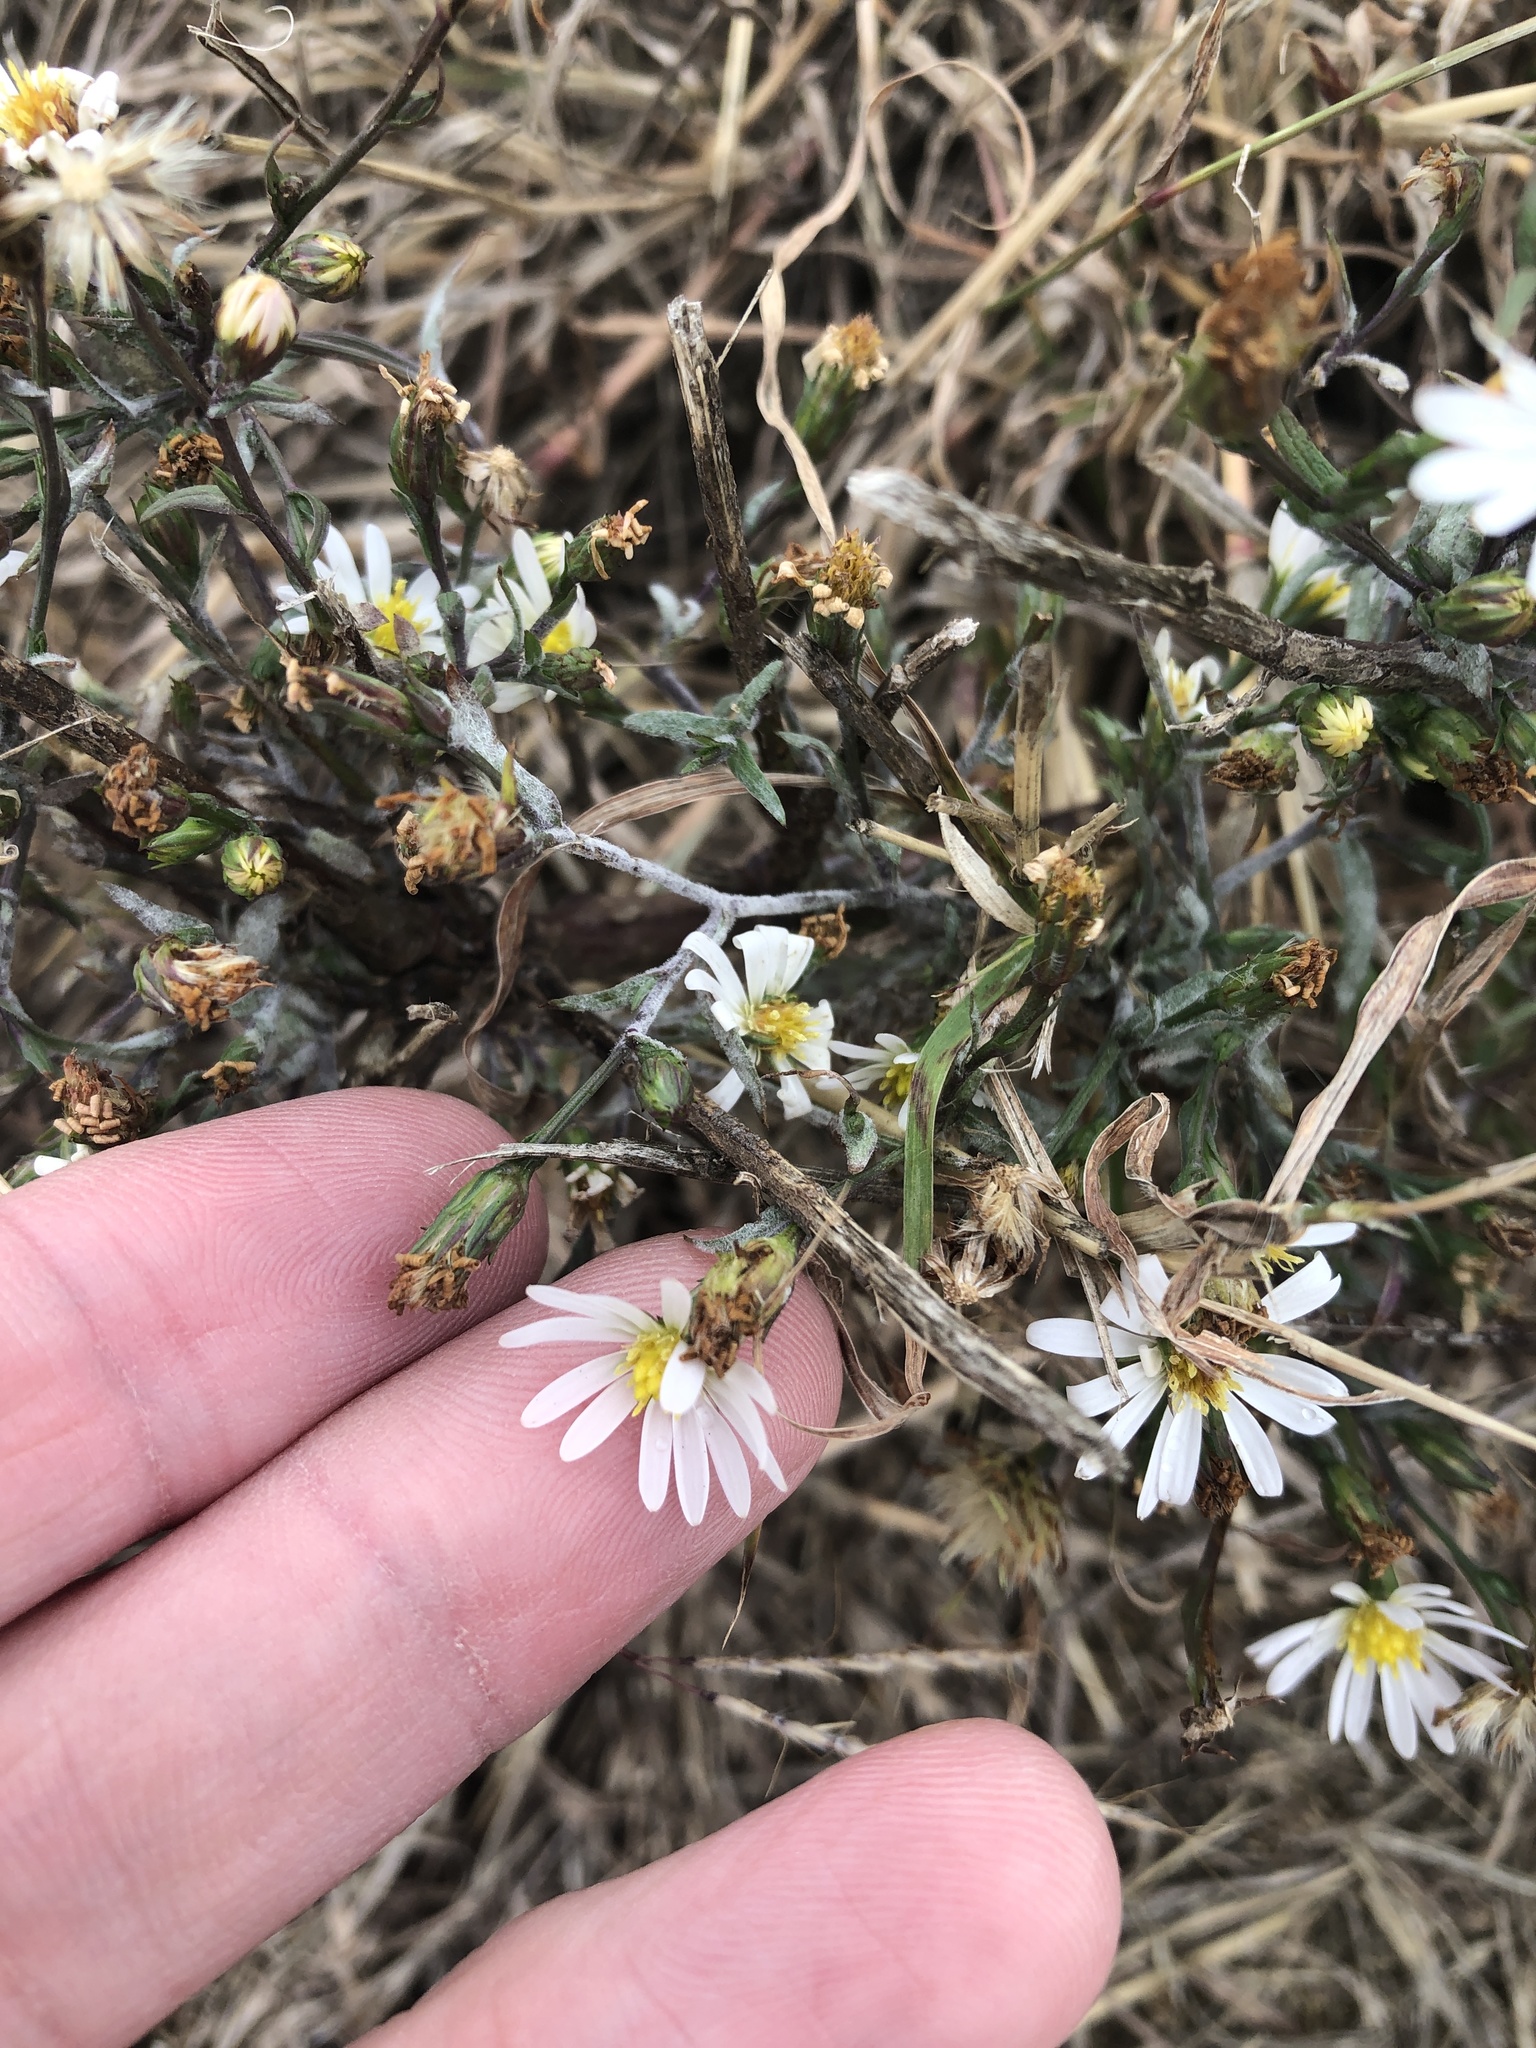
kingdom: Plantae
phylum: Tracheophyta
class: Magnoliopsida
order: Asterales
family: Asteraceae
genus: Symphyotrichum
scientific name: Symphyotrichum divaricatum
